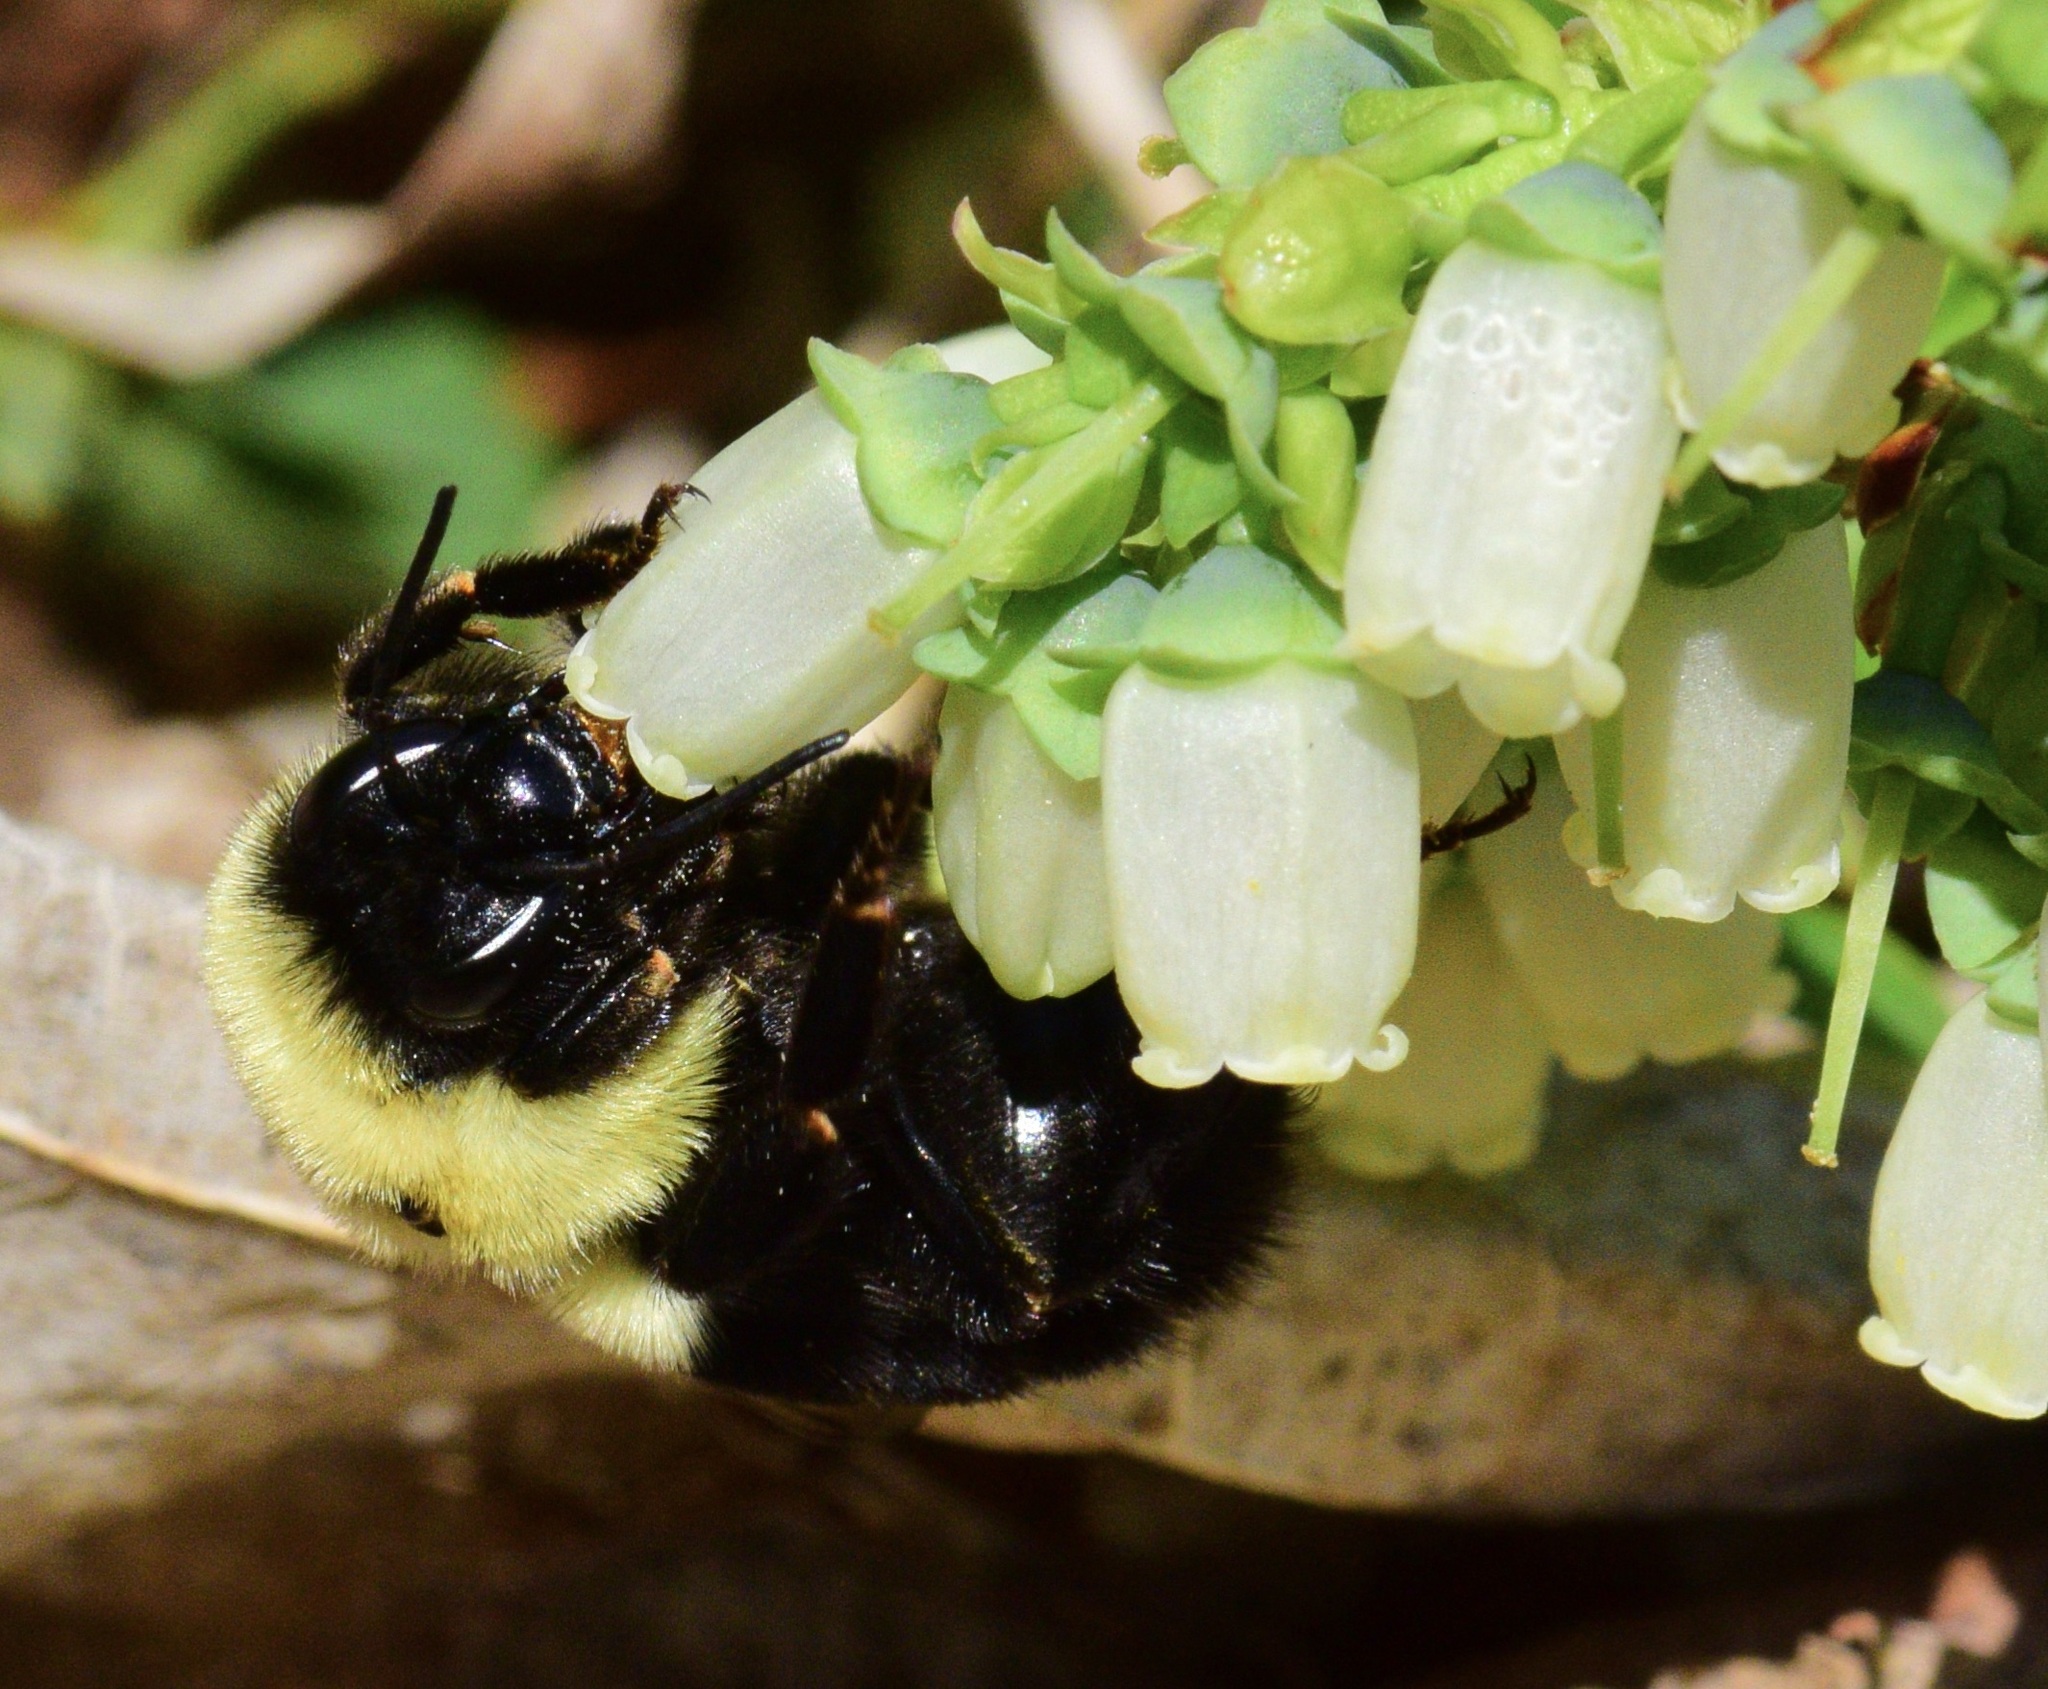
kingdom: Animalia
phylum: Arthropoda
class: Insecta
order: Hymenoptera
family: Apidae
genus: Bombus
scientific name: Bombus impatiens
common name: Common eastern bumble bee
